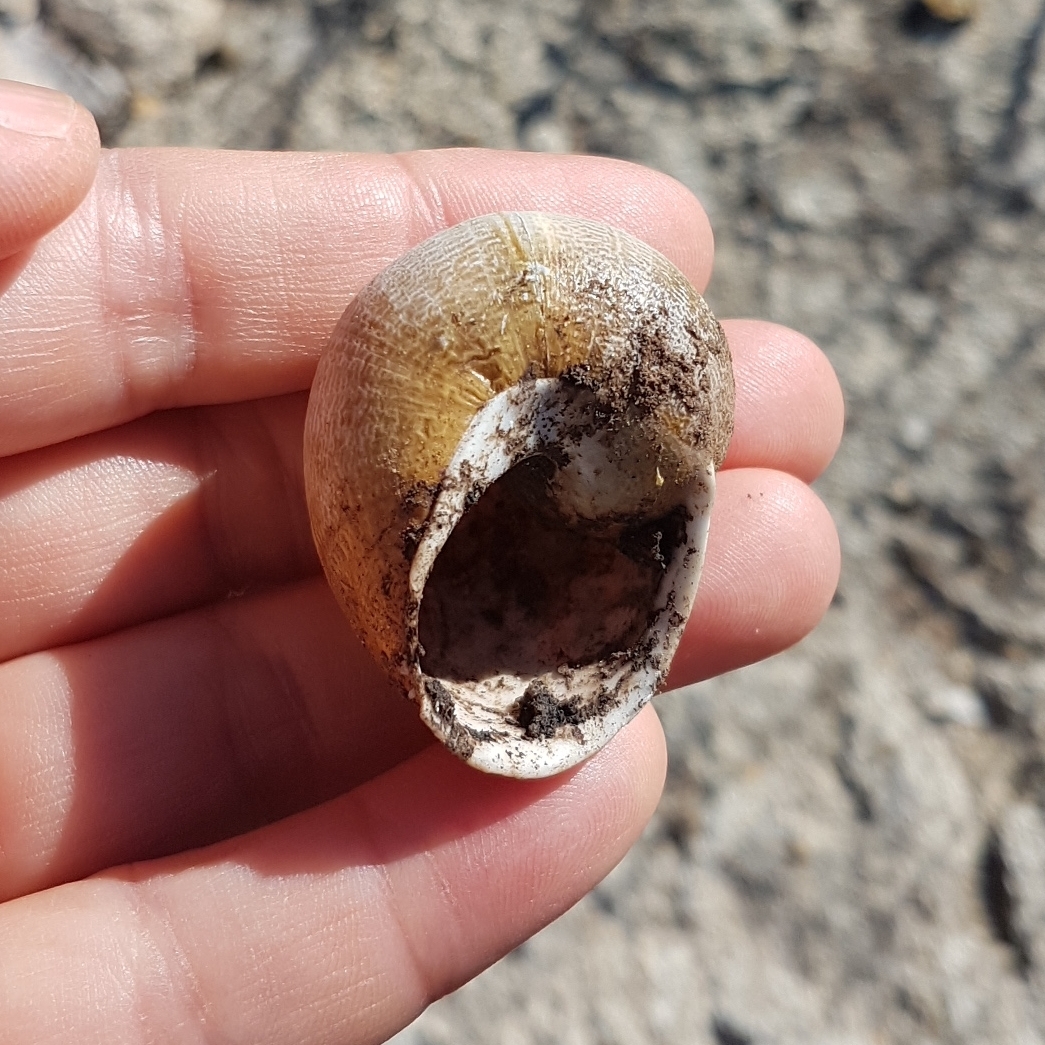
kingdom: Animalia
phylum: Mollusca
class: Gastropoda
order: Stylommatophora
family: Helicidae
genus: Cornu
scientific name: Cornu aspersum
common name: Brown garden snail
